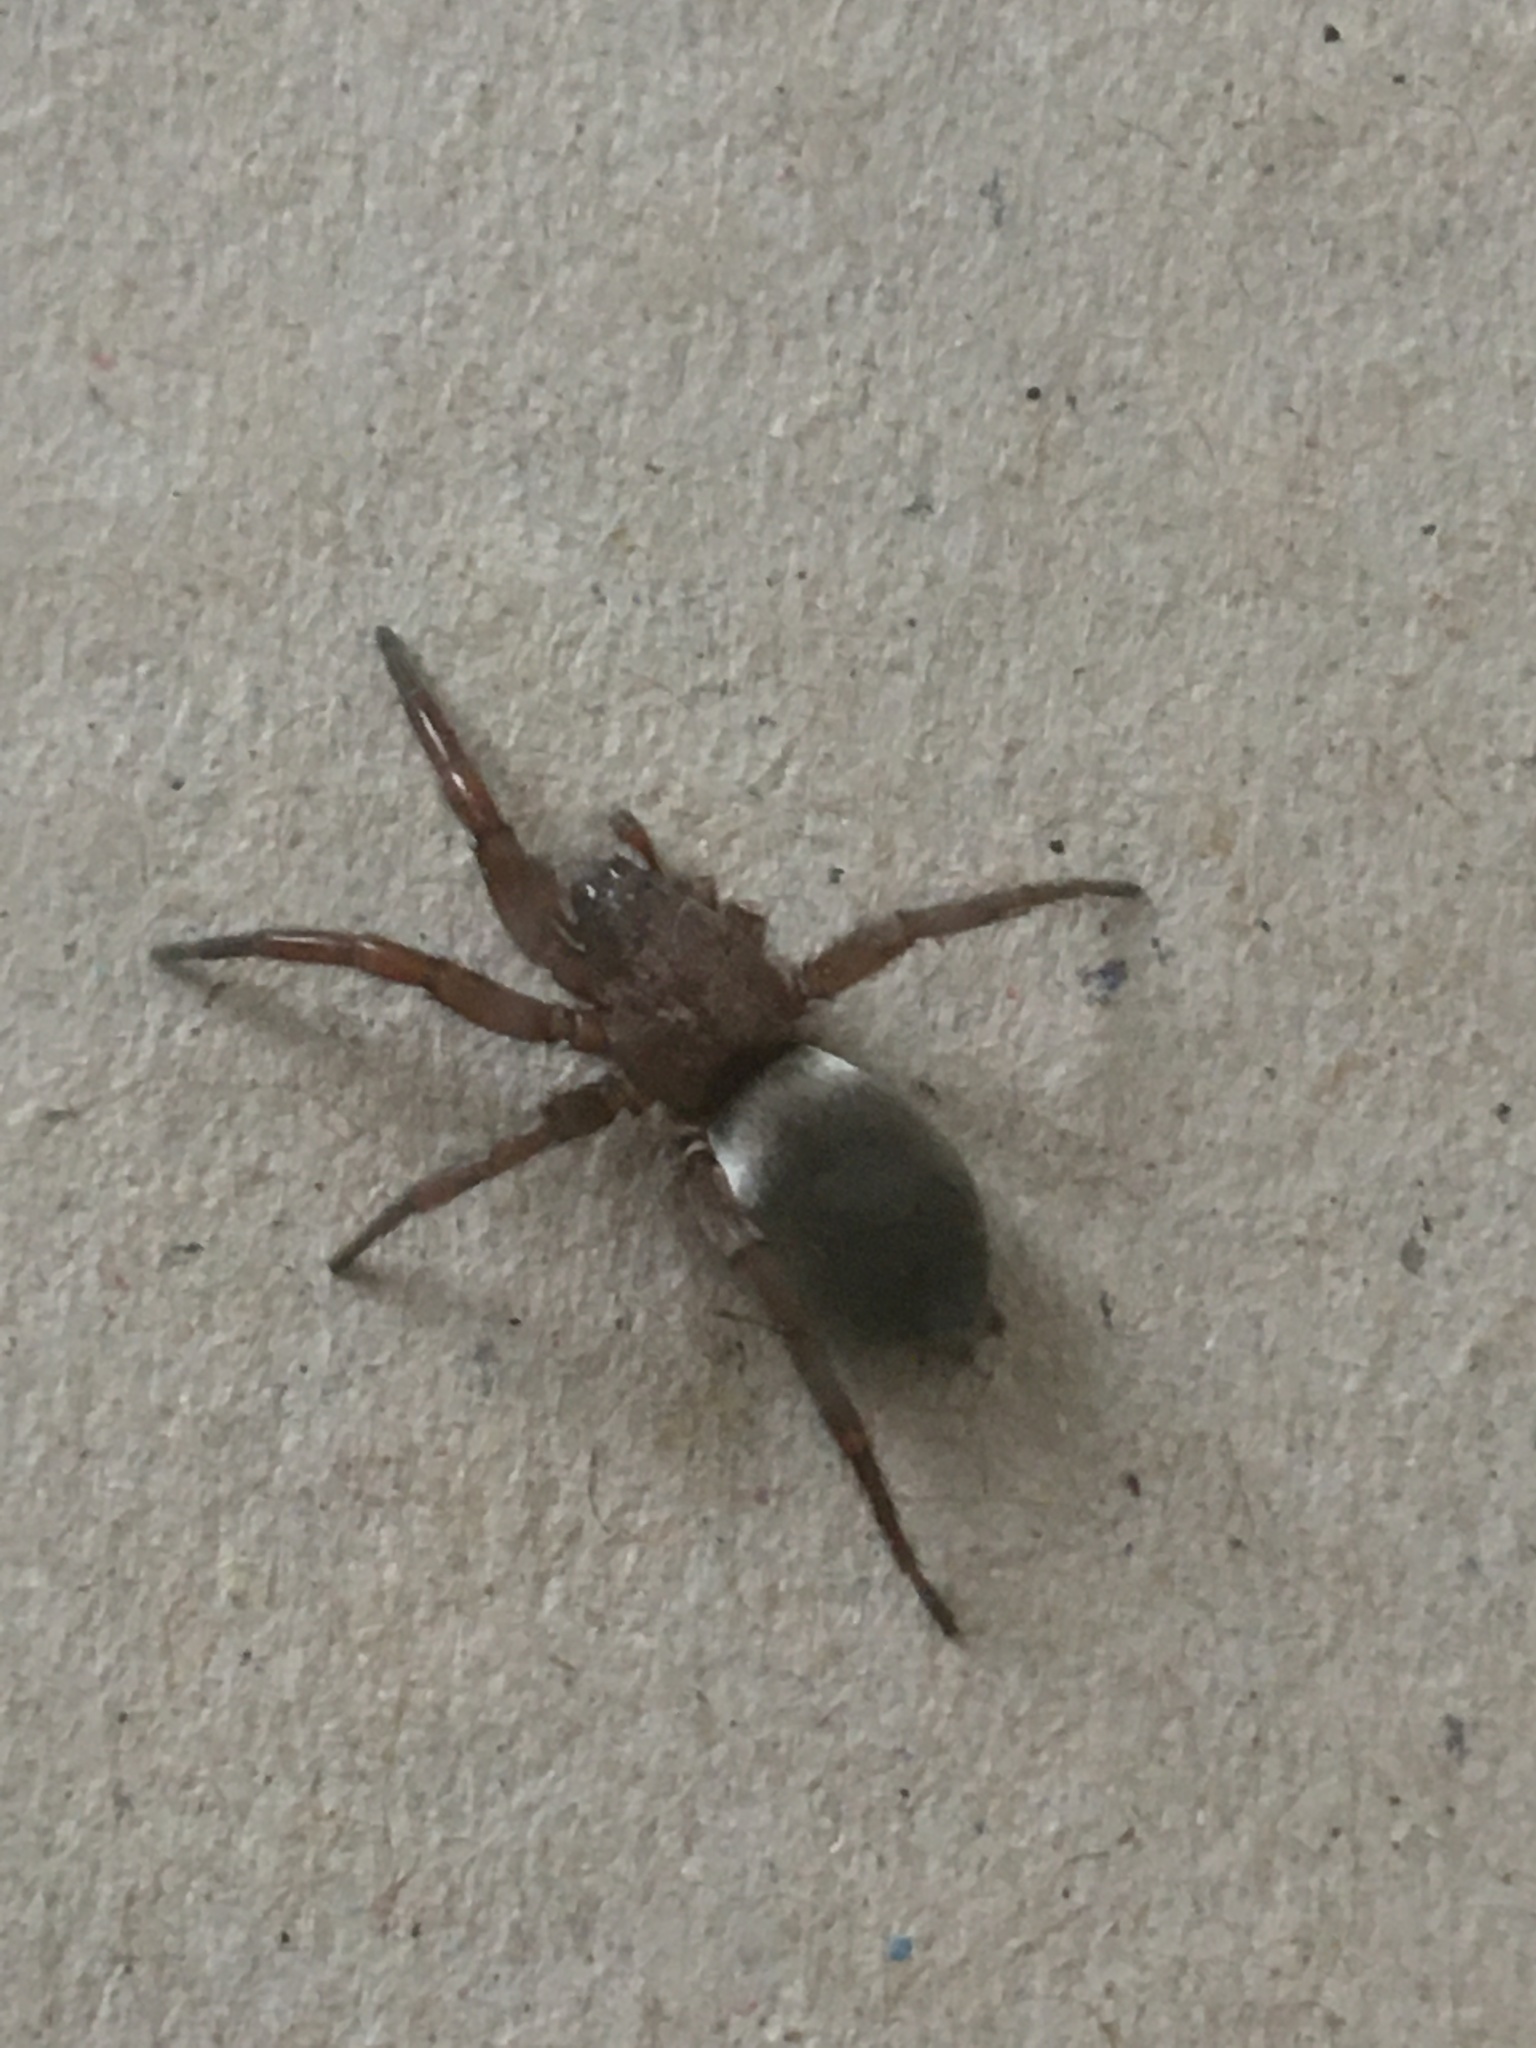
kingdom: Animalia
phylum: Arthropoda
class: Arachnida
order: Araneae
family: Gnaphosidae
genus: Scotophaeus
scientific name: Scotophaeus blackwalli
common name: Mouse spider
